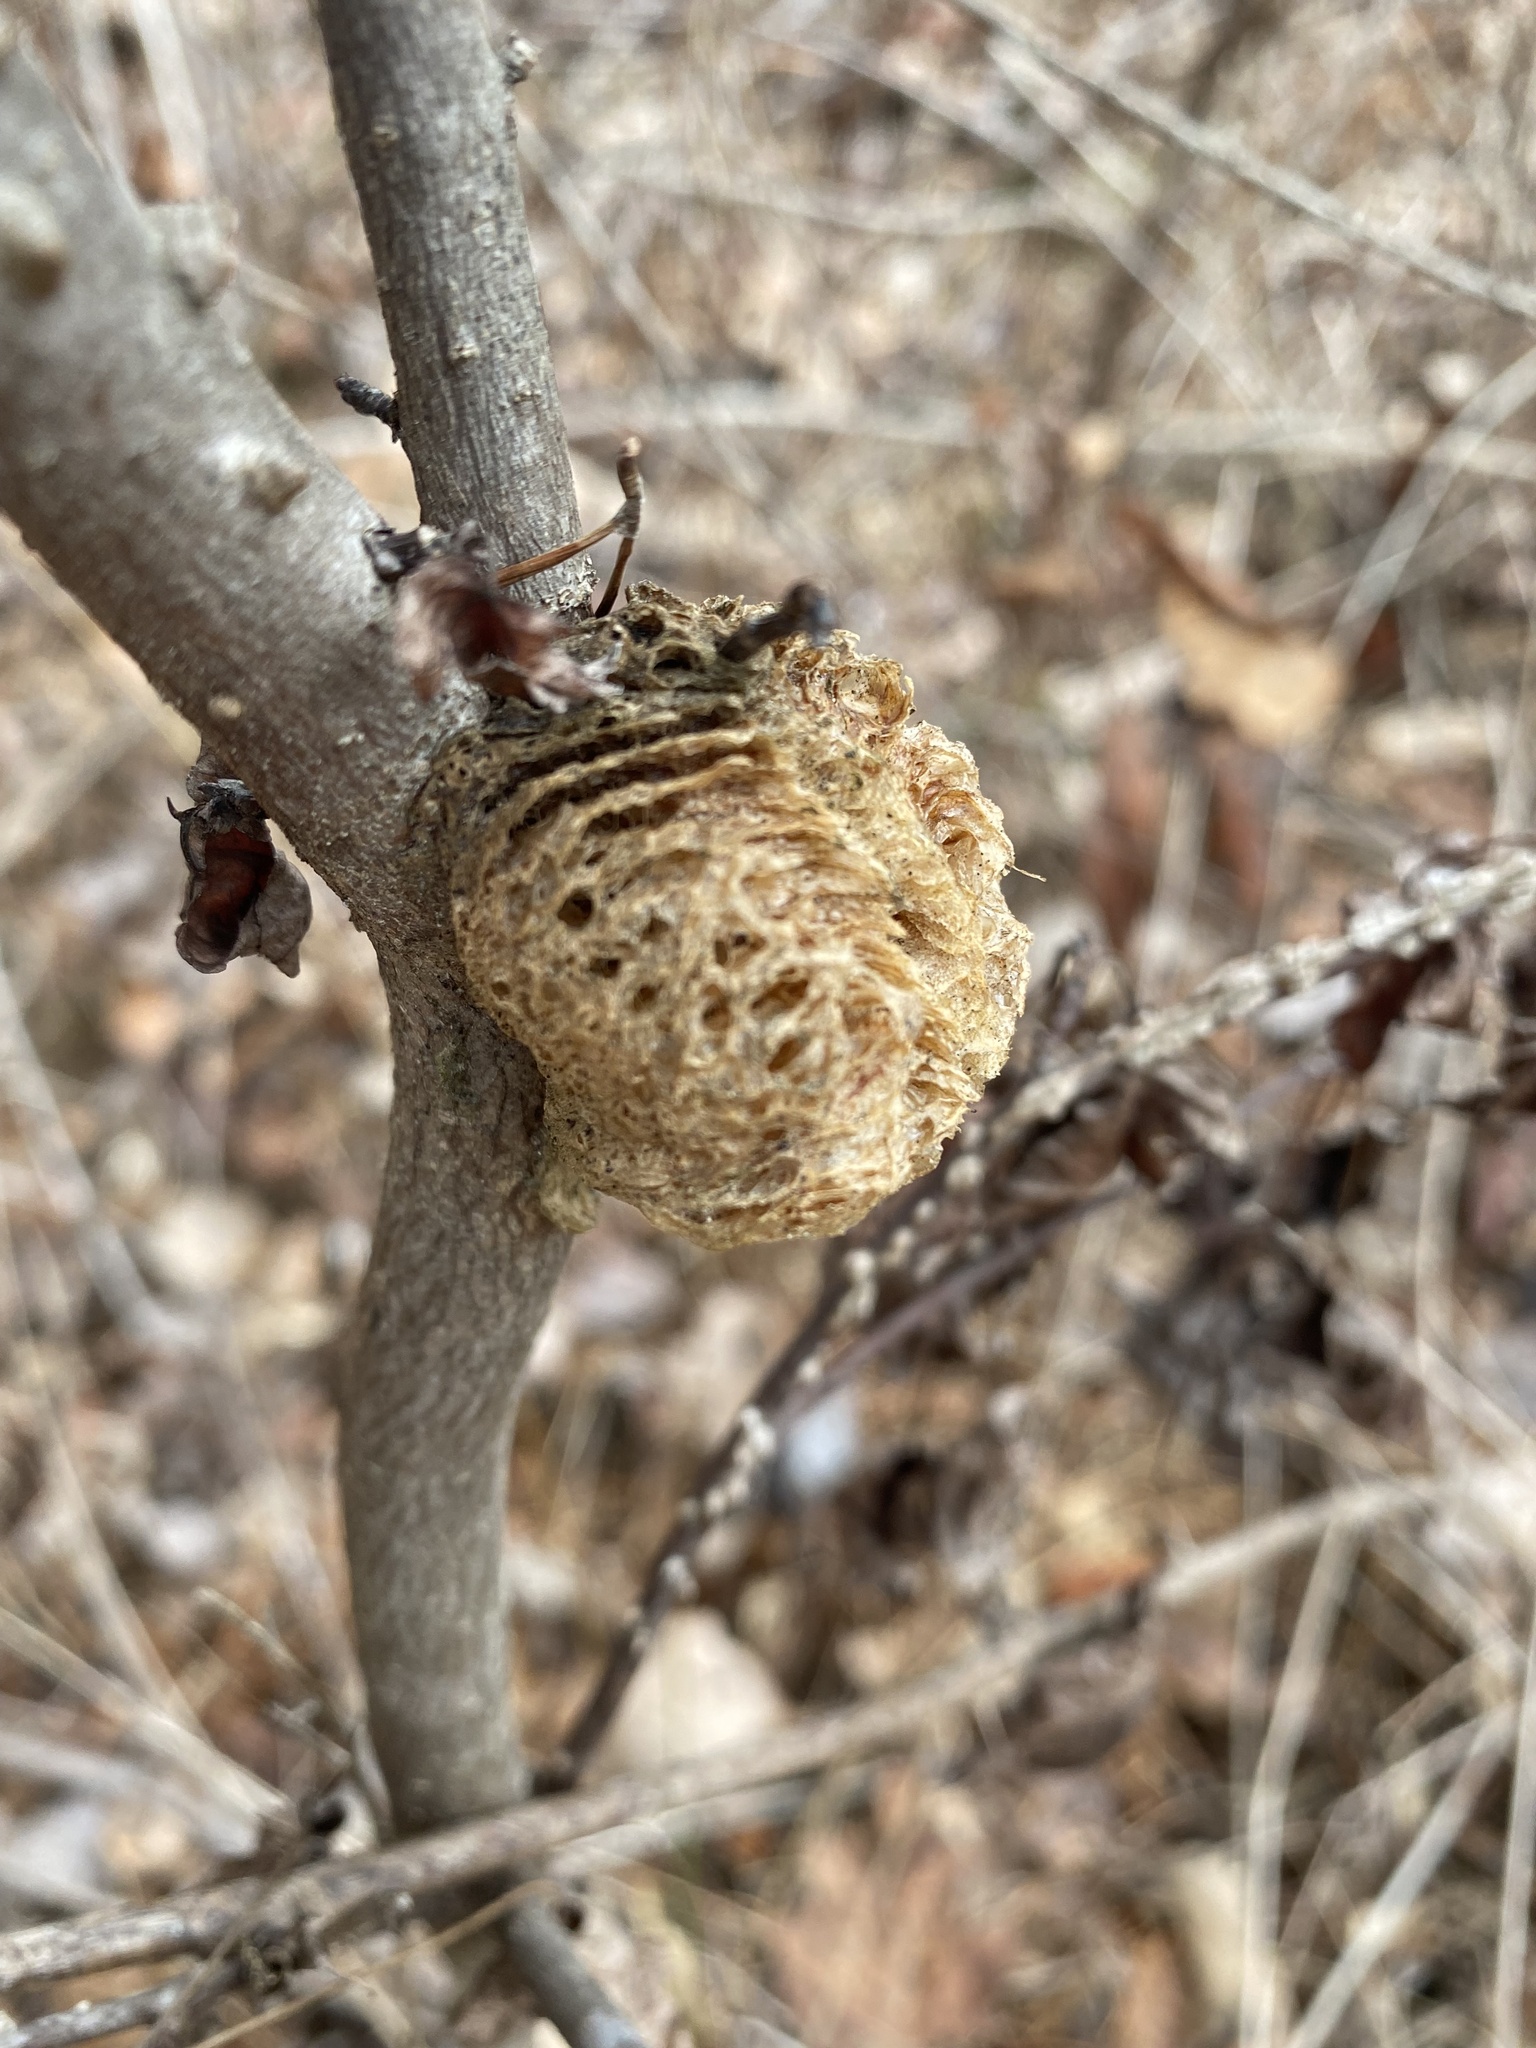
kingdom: Animalia
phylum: Arthropoda
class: Insecta
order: Mantodea
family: Mantidae
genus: Tenodera
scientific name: Tenodera sinensis
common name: Chinese mantis
